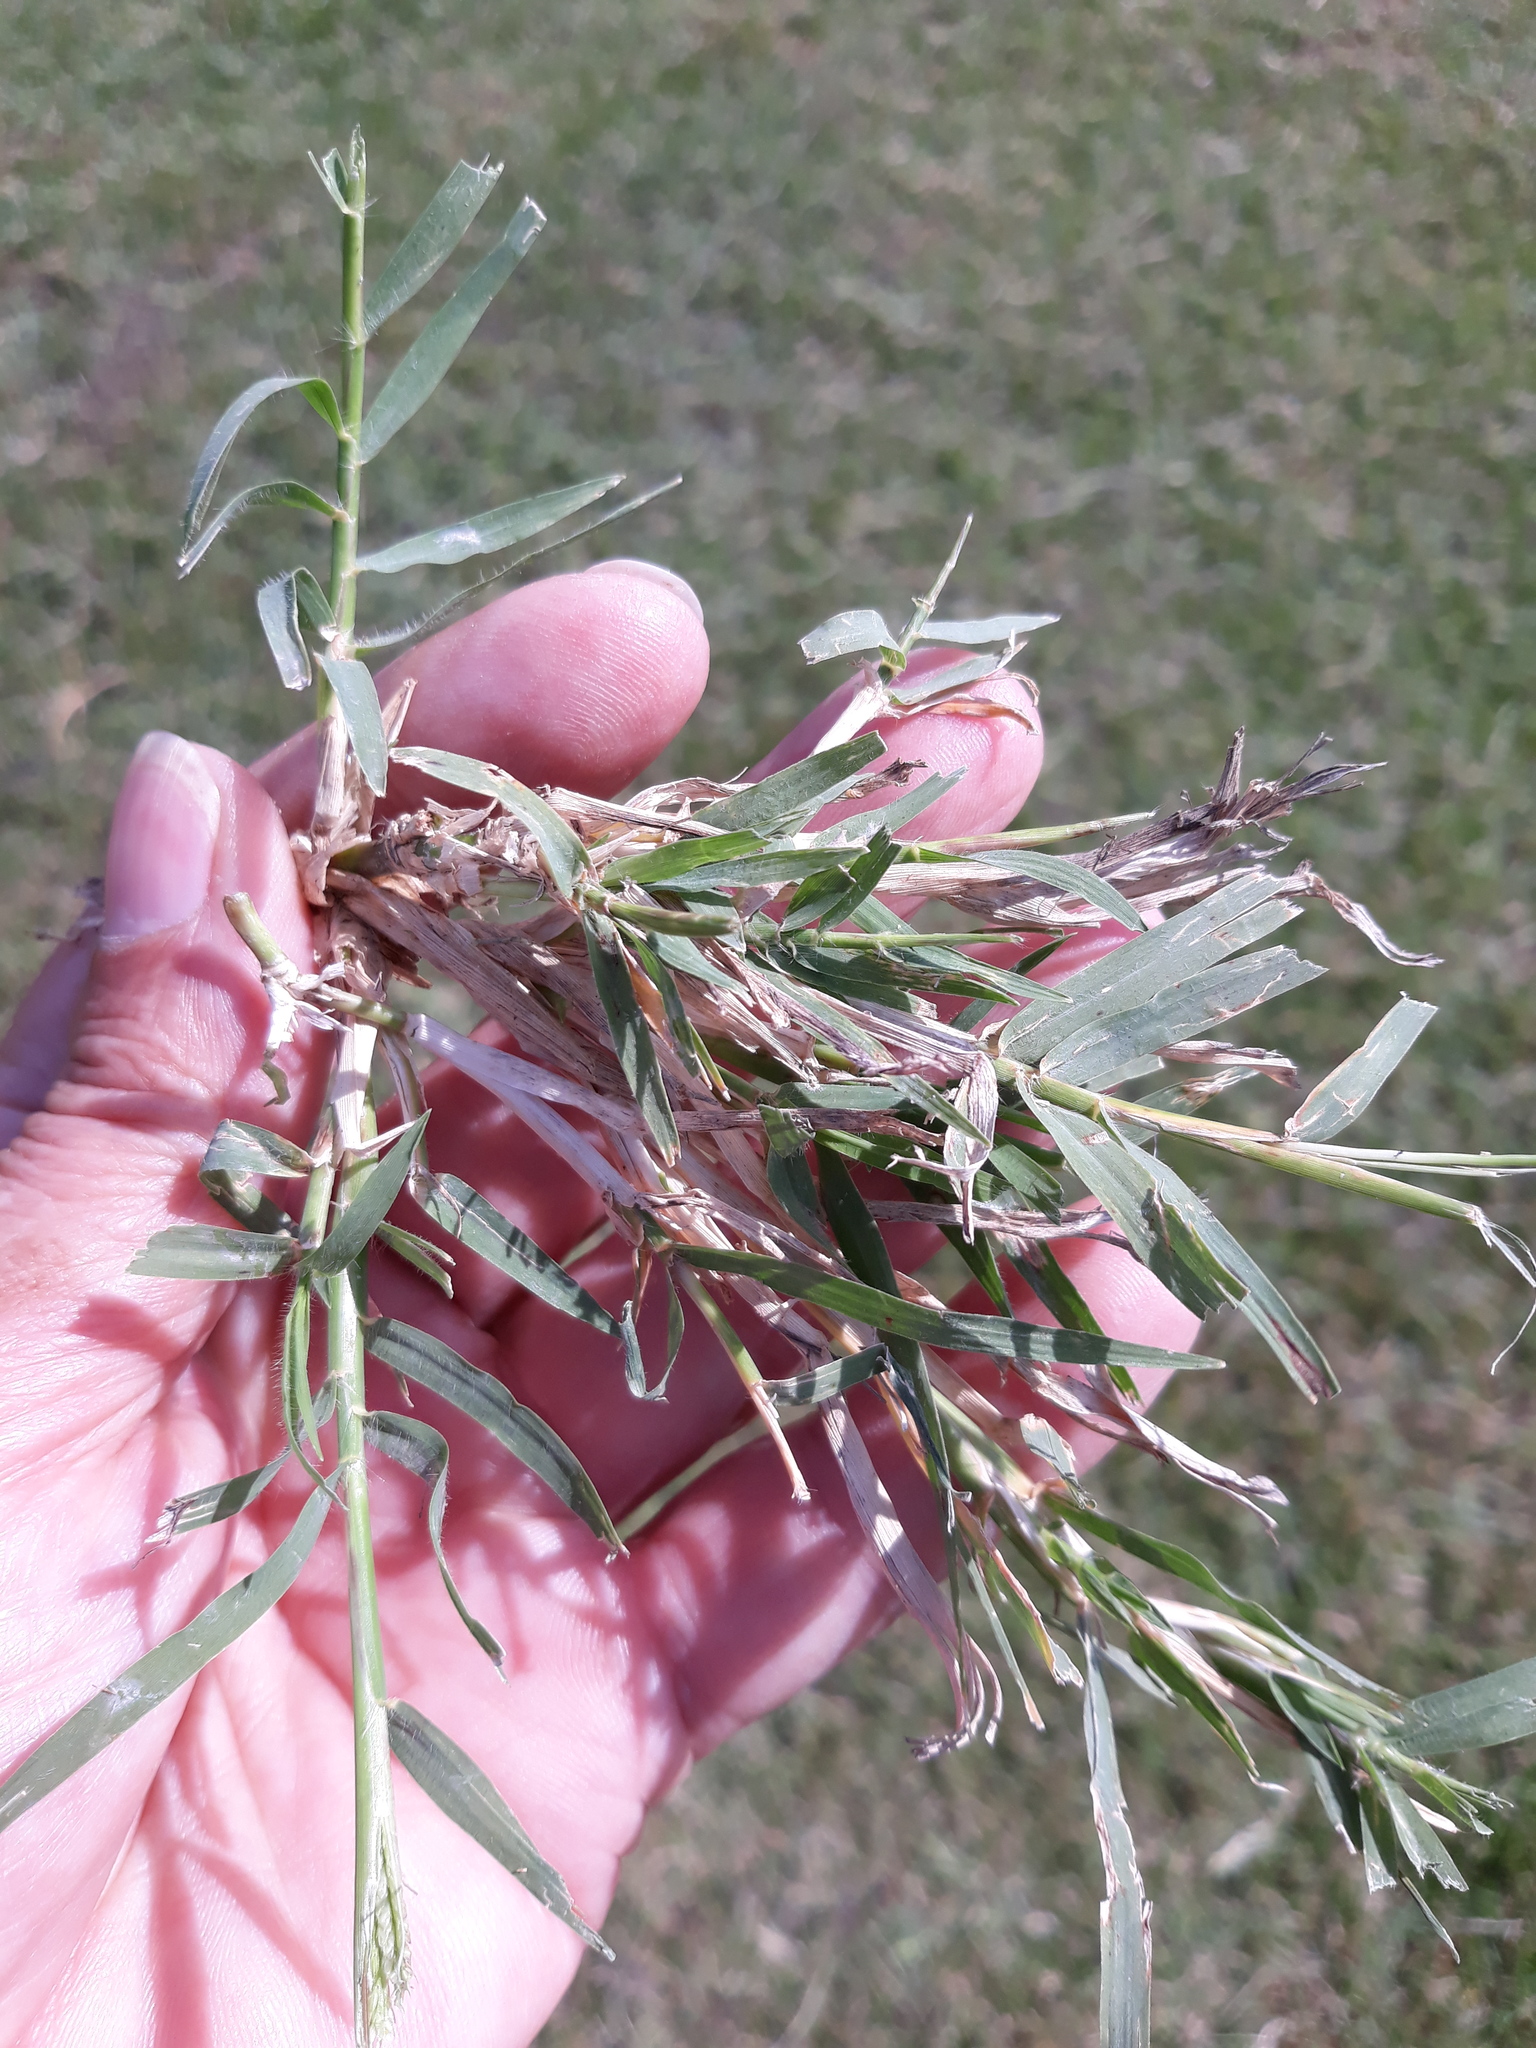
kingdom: Plantae
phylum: Tracheophyta
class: Liliopsida
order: Poales
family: Poaceae
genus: Cynodon
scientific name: Cynodon dactylon
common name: Bermuda grass
